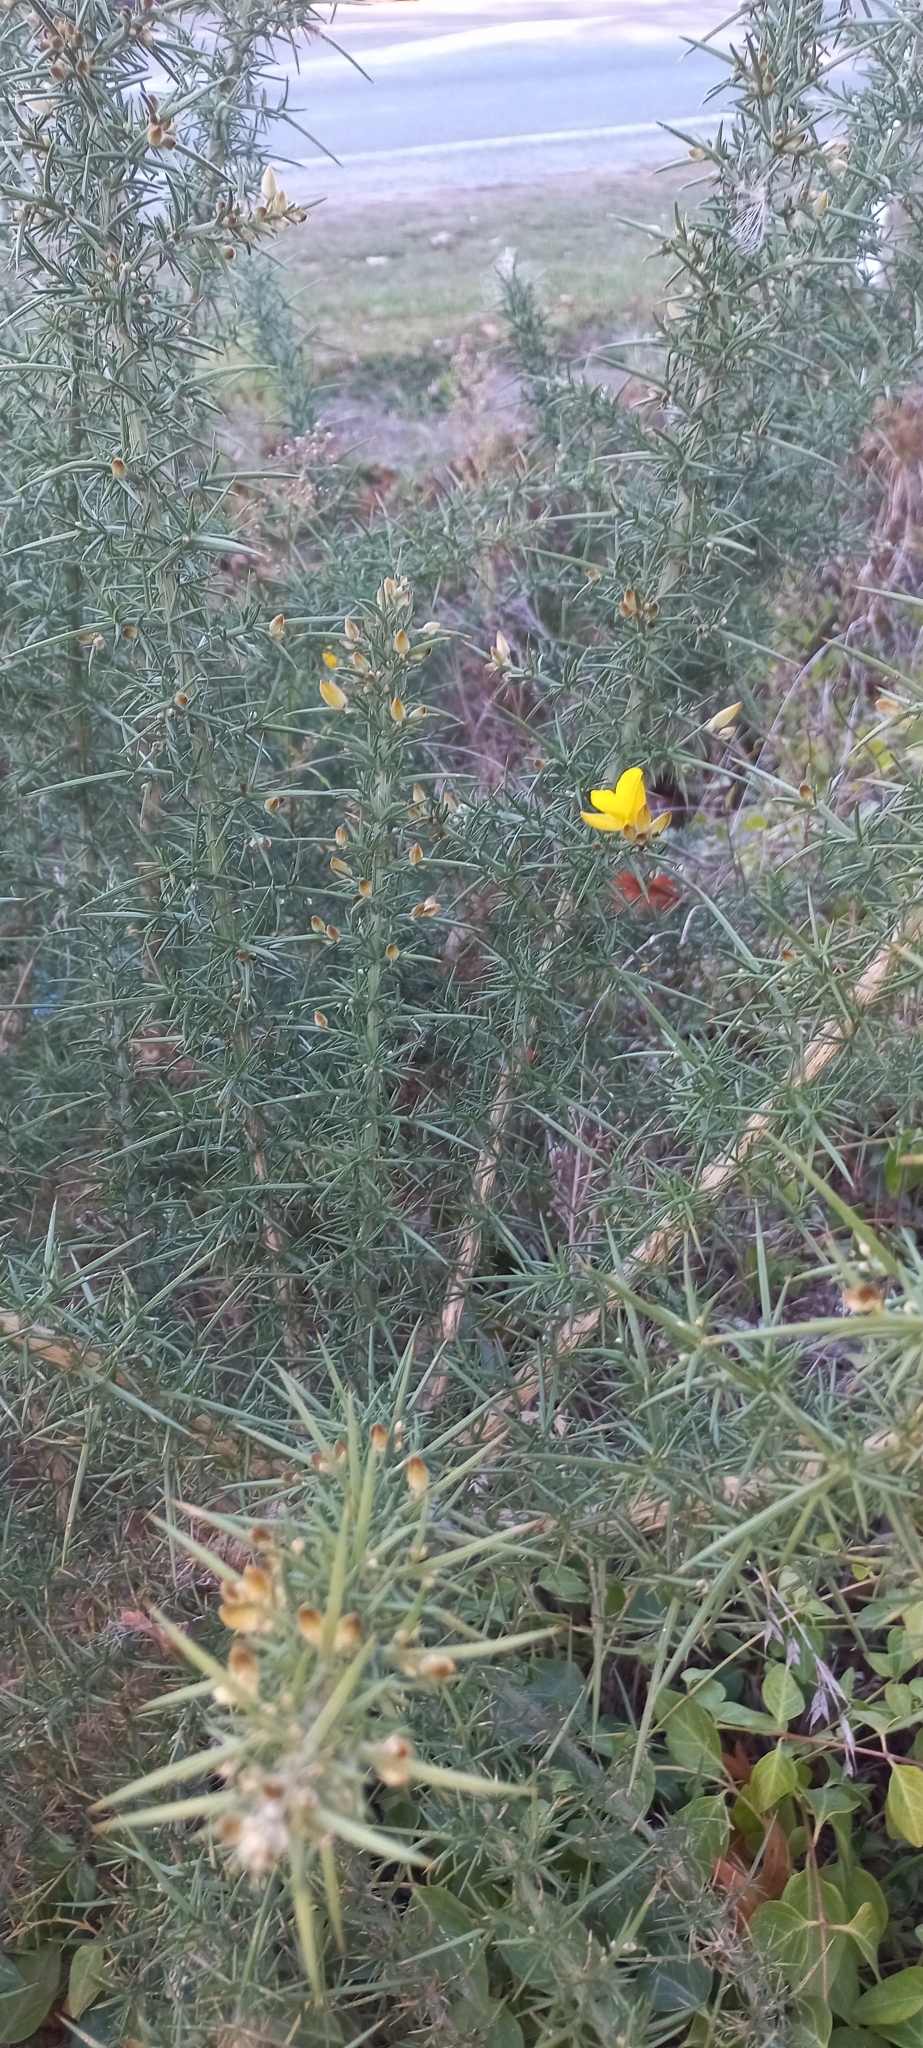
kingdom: Plantae
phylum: Tracheophyta
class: Magnoliopsida
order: Fabales
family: Fabaceae
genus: Ulex
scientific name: Ulex europaeus
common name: Common gorse
